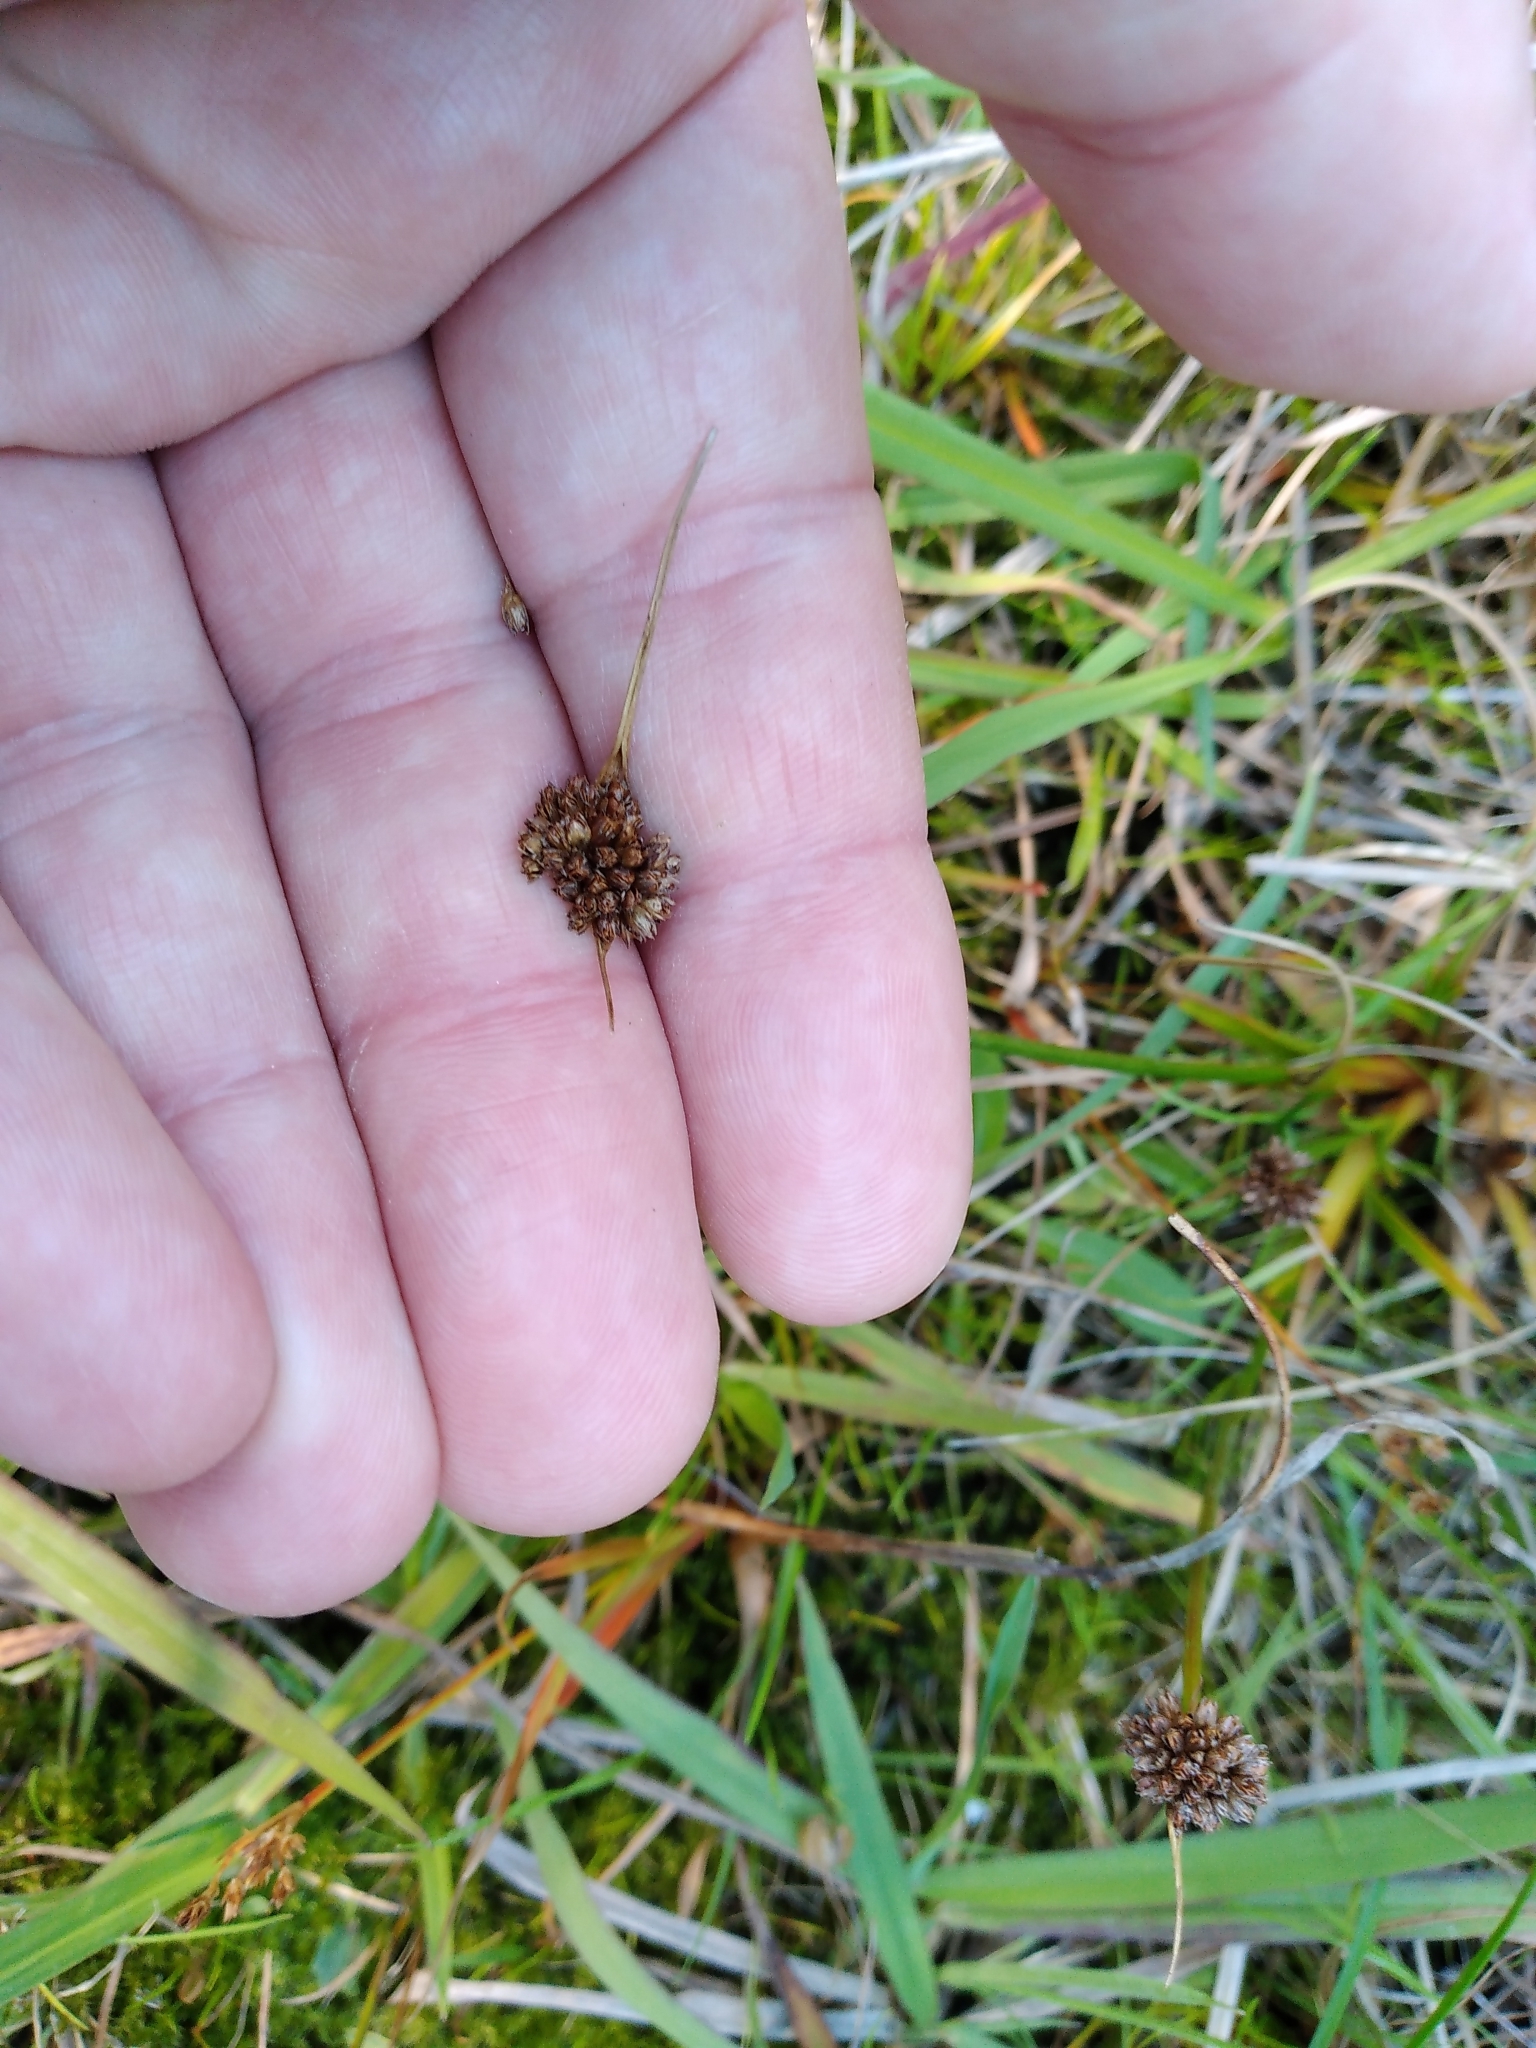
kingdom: Plantae
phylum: Tracheophyta
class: Liliopsida
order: Poales
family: Juncaceae
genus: Juncus
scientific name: Juncus caespiticius
